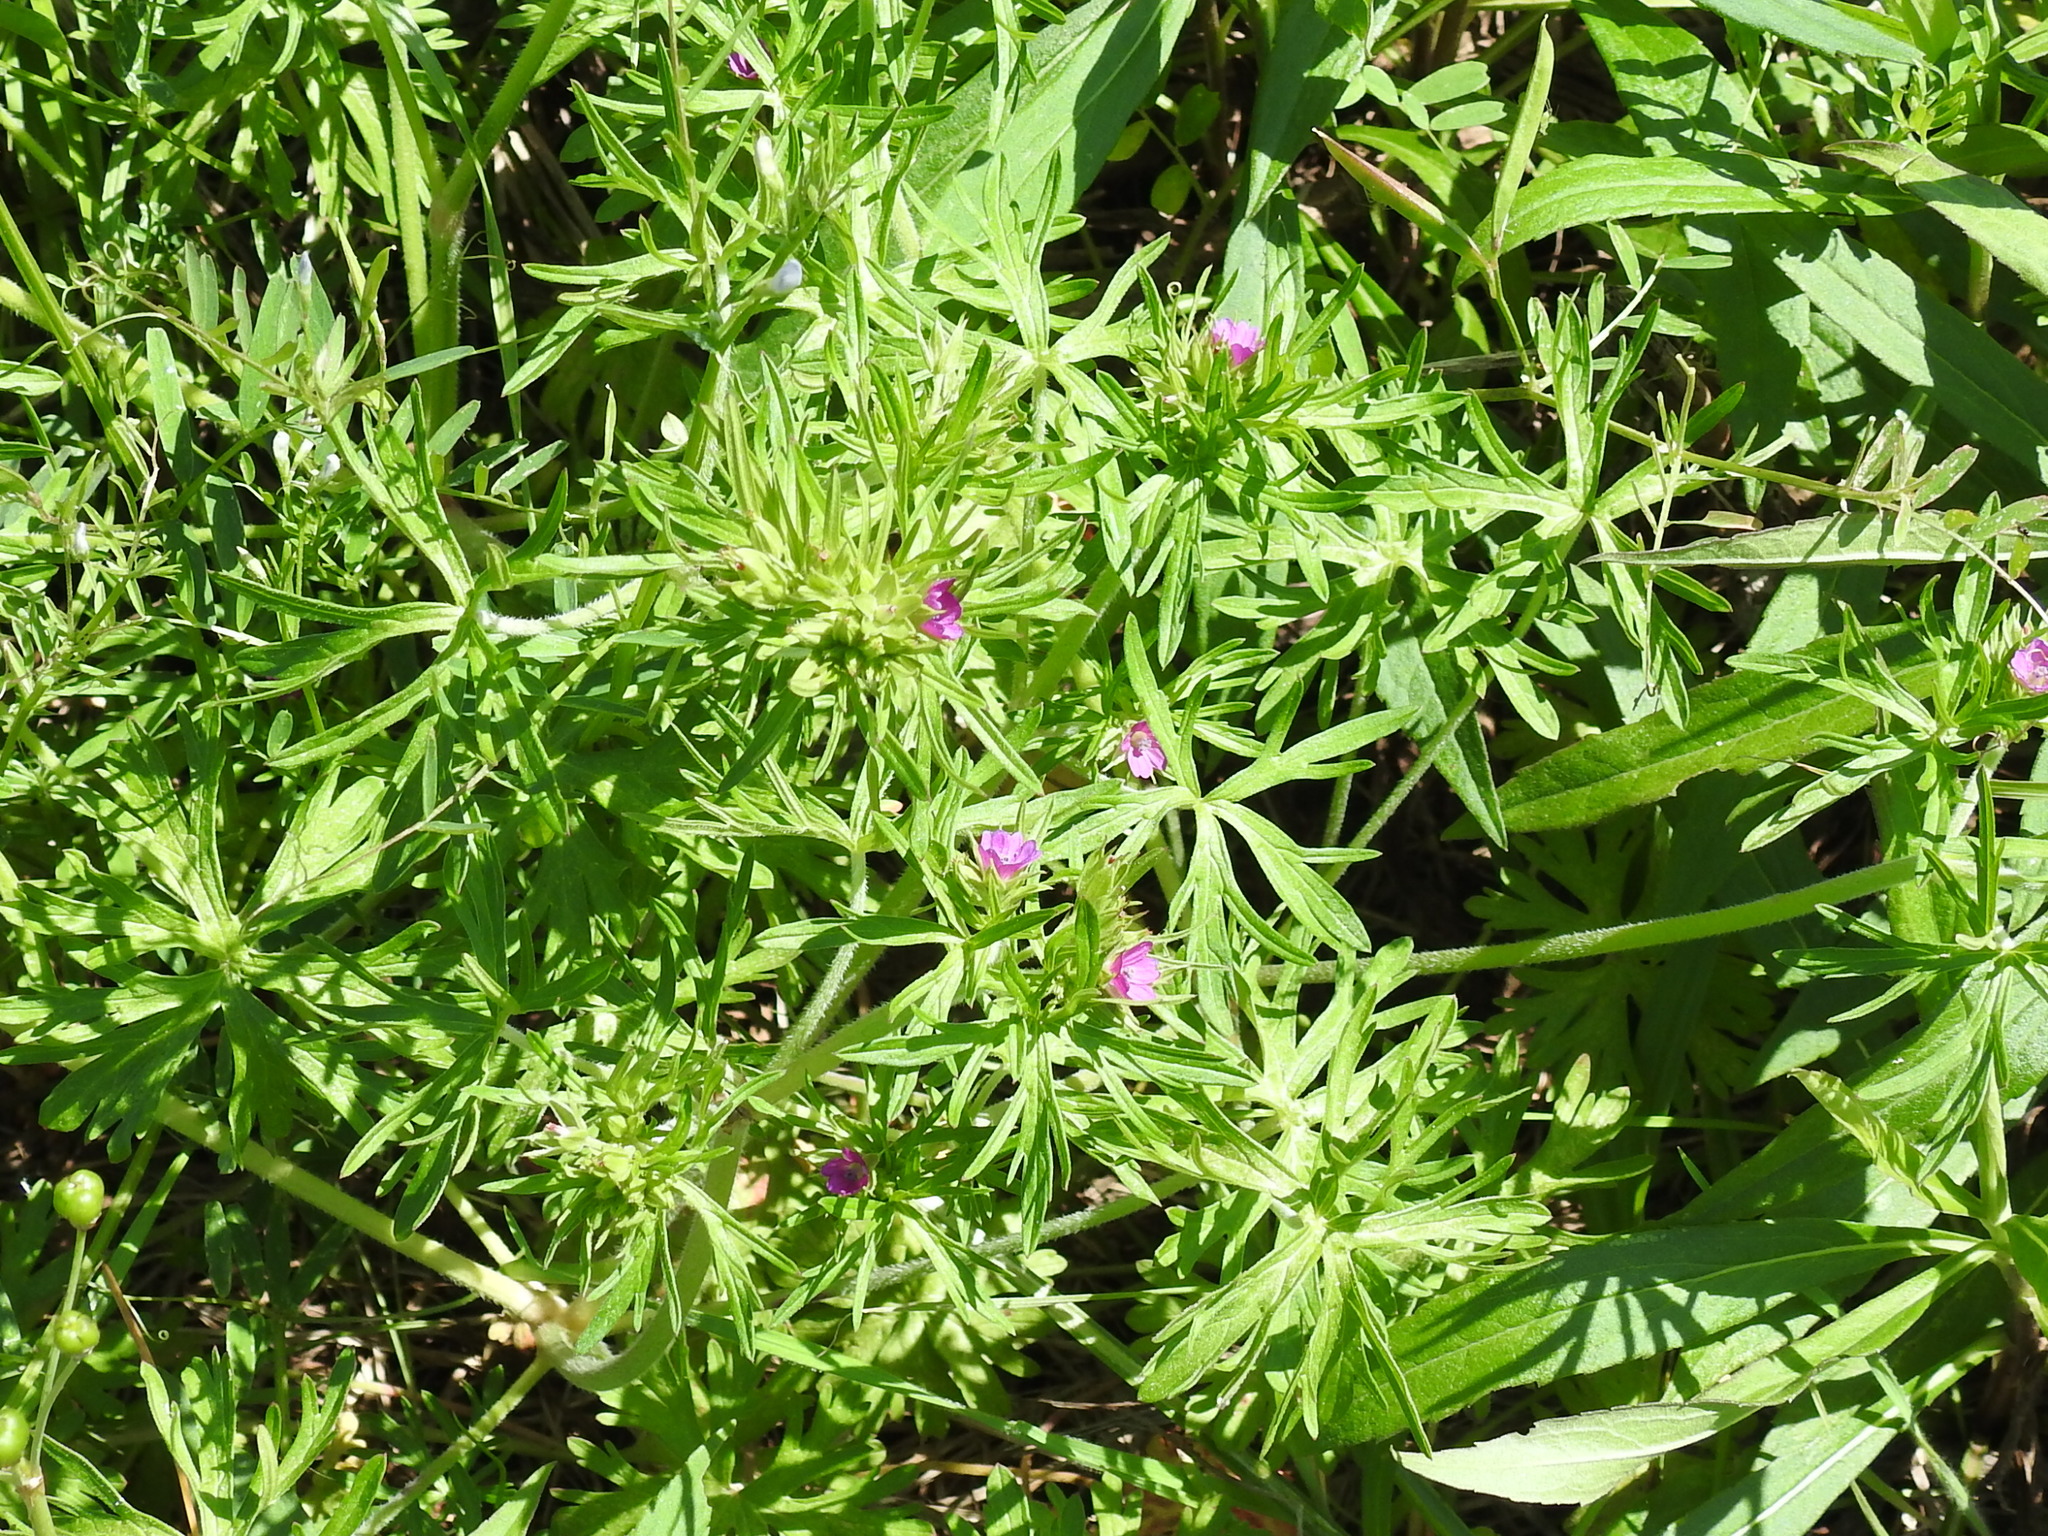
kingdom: Plantae
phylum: Tracheophyta
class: Magnoliopsida
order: Geraniales
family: Geraniaceae
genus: Geranium
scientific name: Geranium dissectum
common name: Cut-leaved crane's-bill
